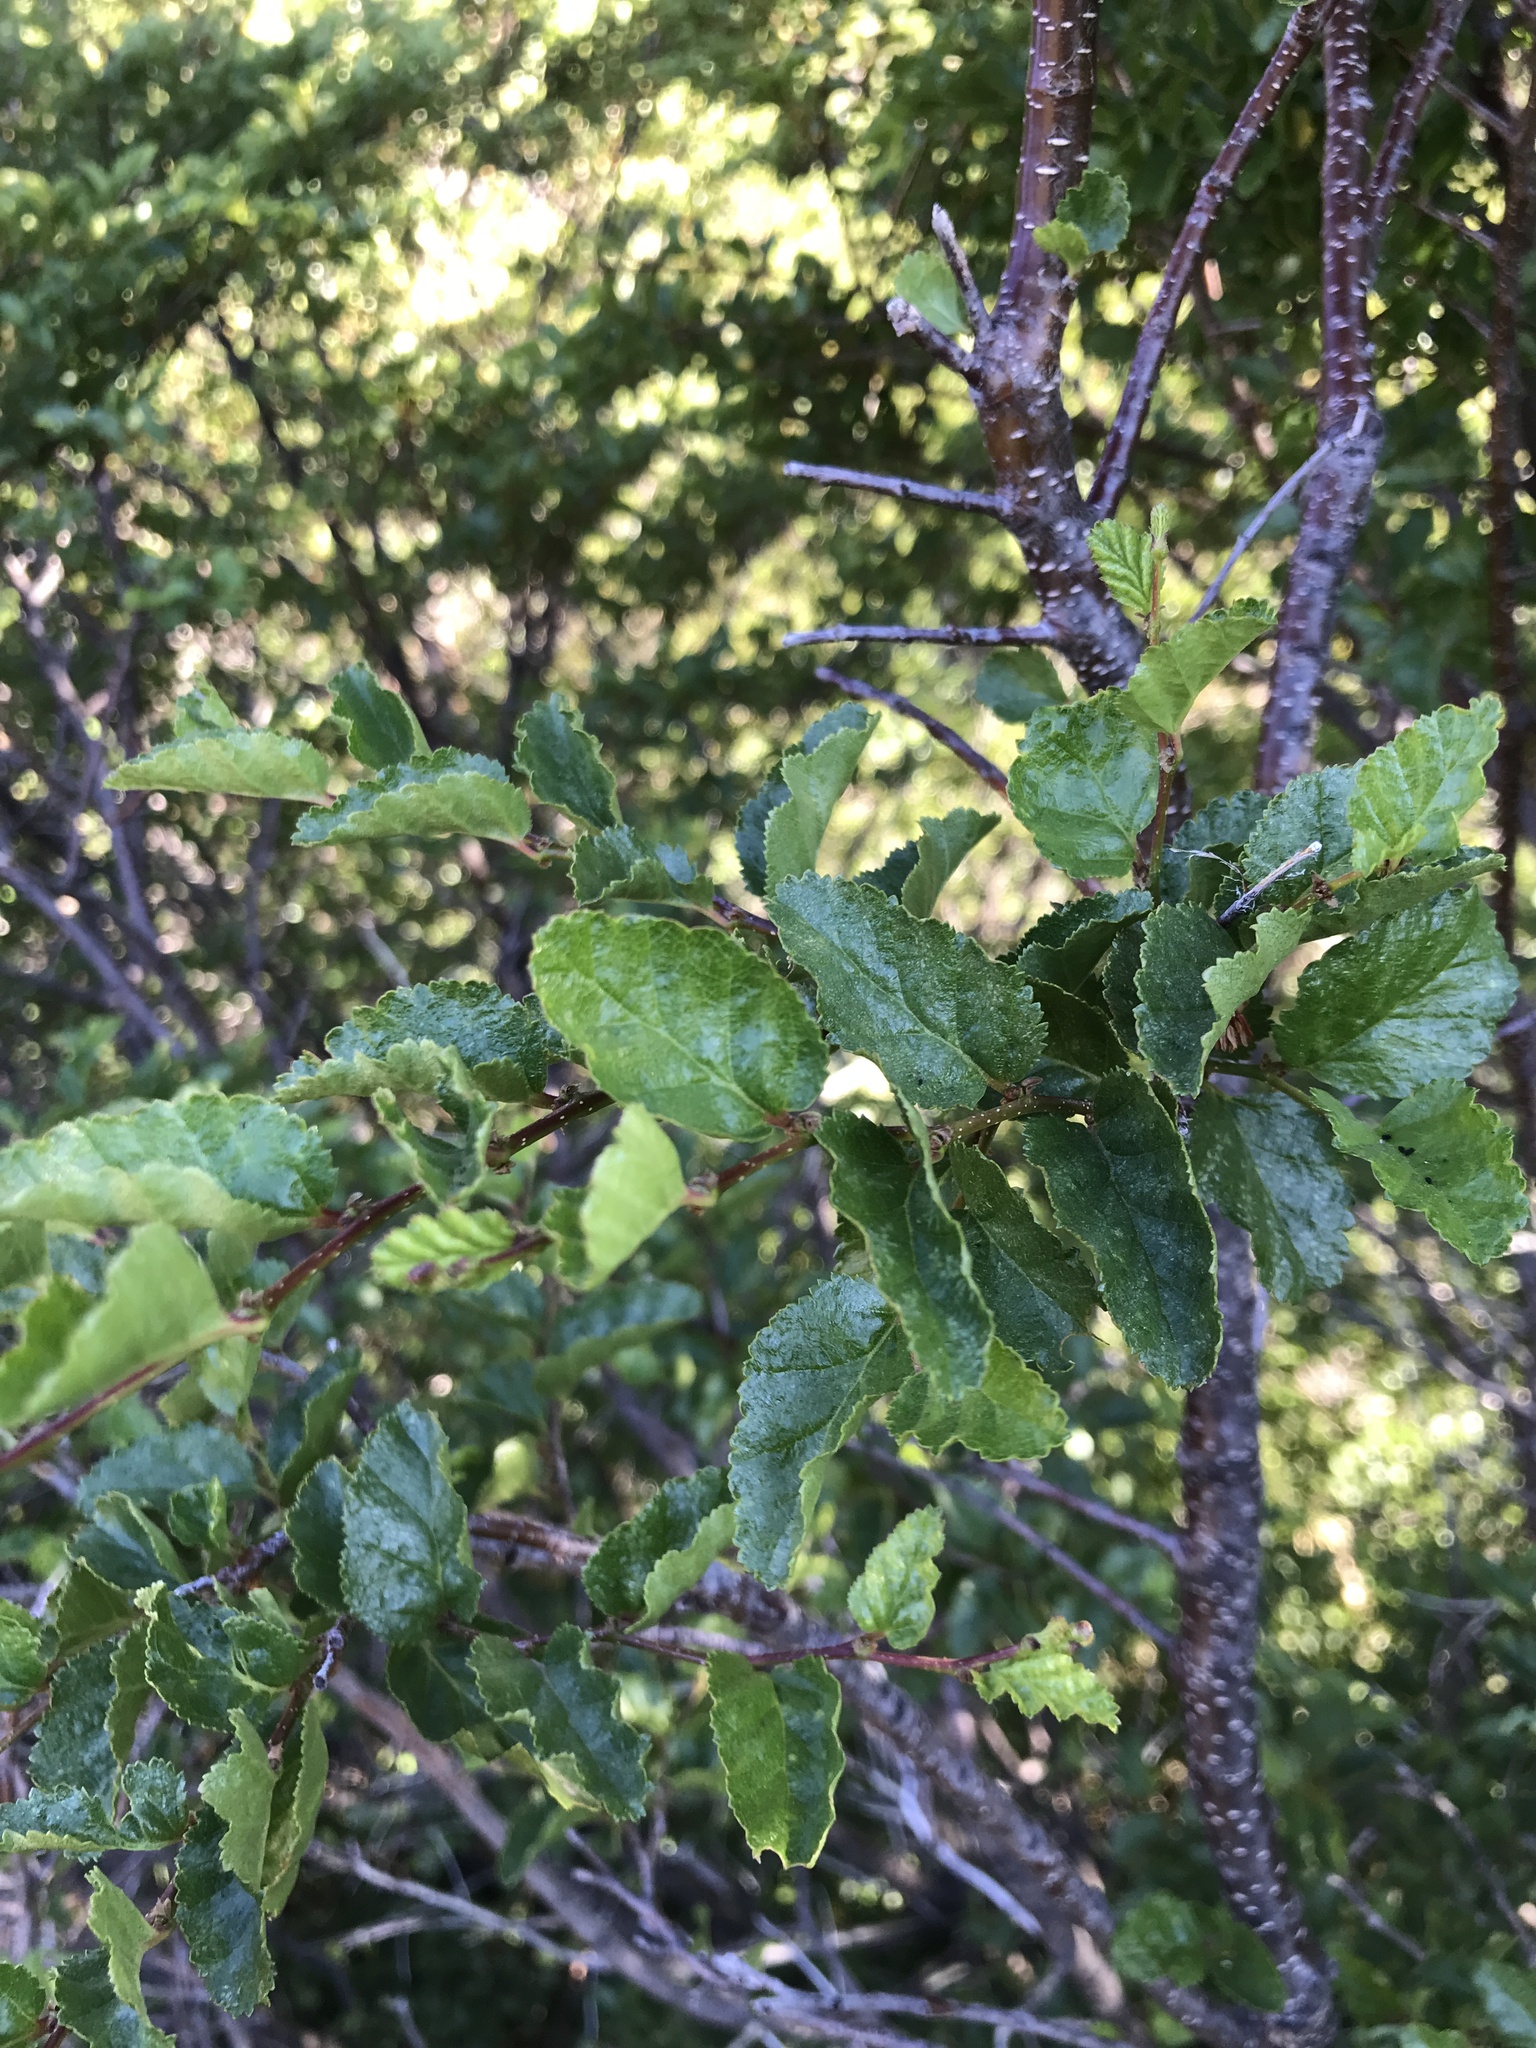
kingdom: Plantae
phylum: Tracheophyta
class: Magnoliopsida
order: Fagales
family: Nothofagaceae
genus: Nothofagus
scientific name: Nothofagus antarctica
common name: Antarctic beech
